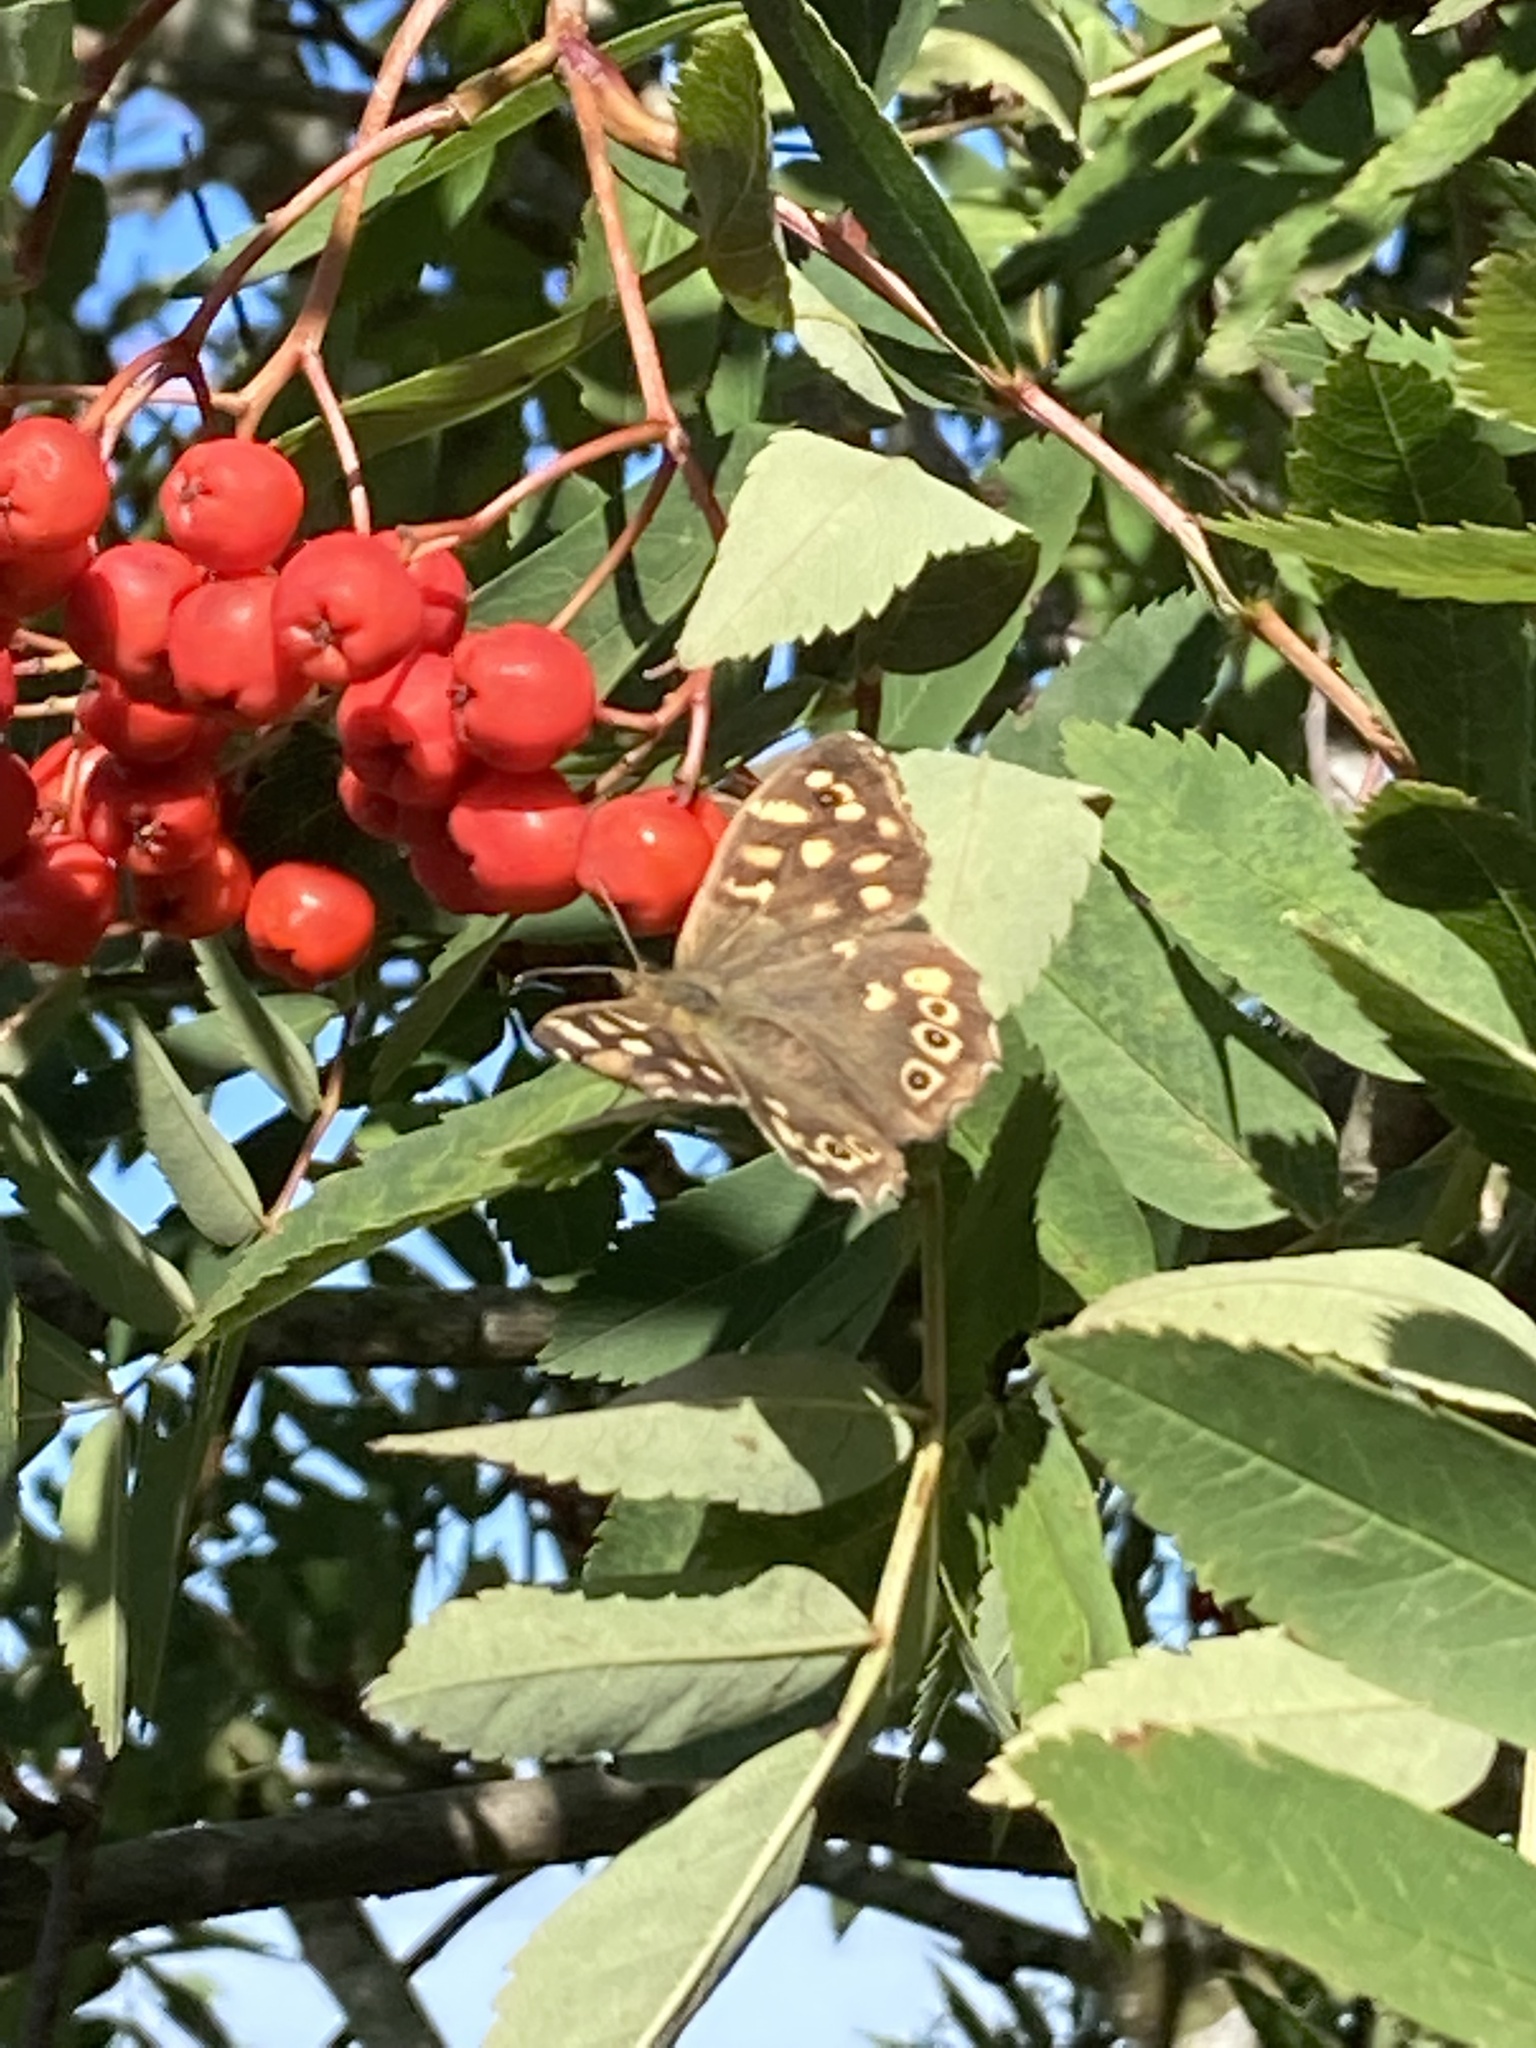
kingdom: Animalia
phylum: Arthropoda
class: Insecta
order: Lepidoptera
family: Nymphalidae
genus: Pararge
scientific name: Pararge aegeria
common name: Speckled wood
